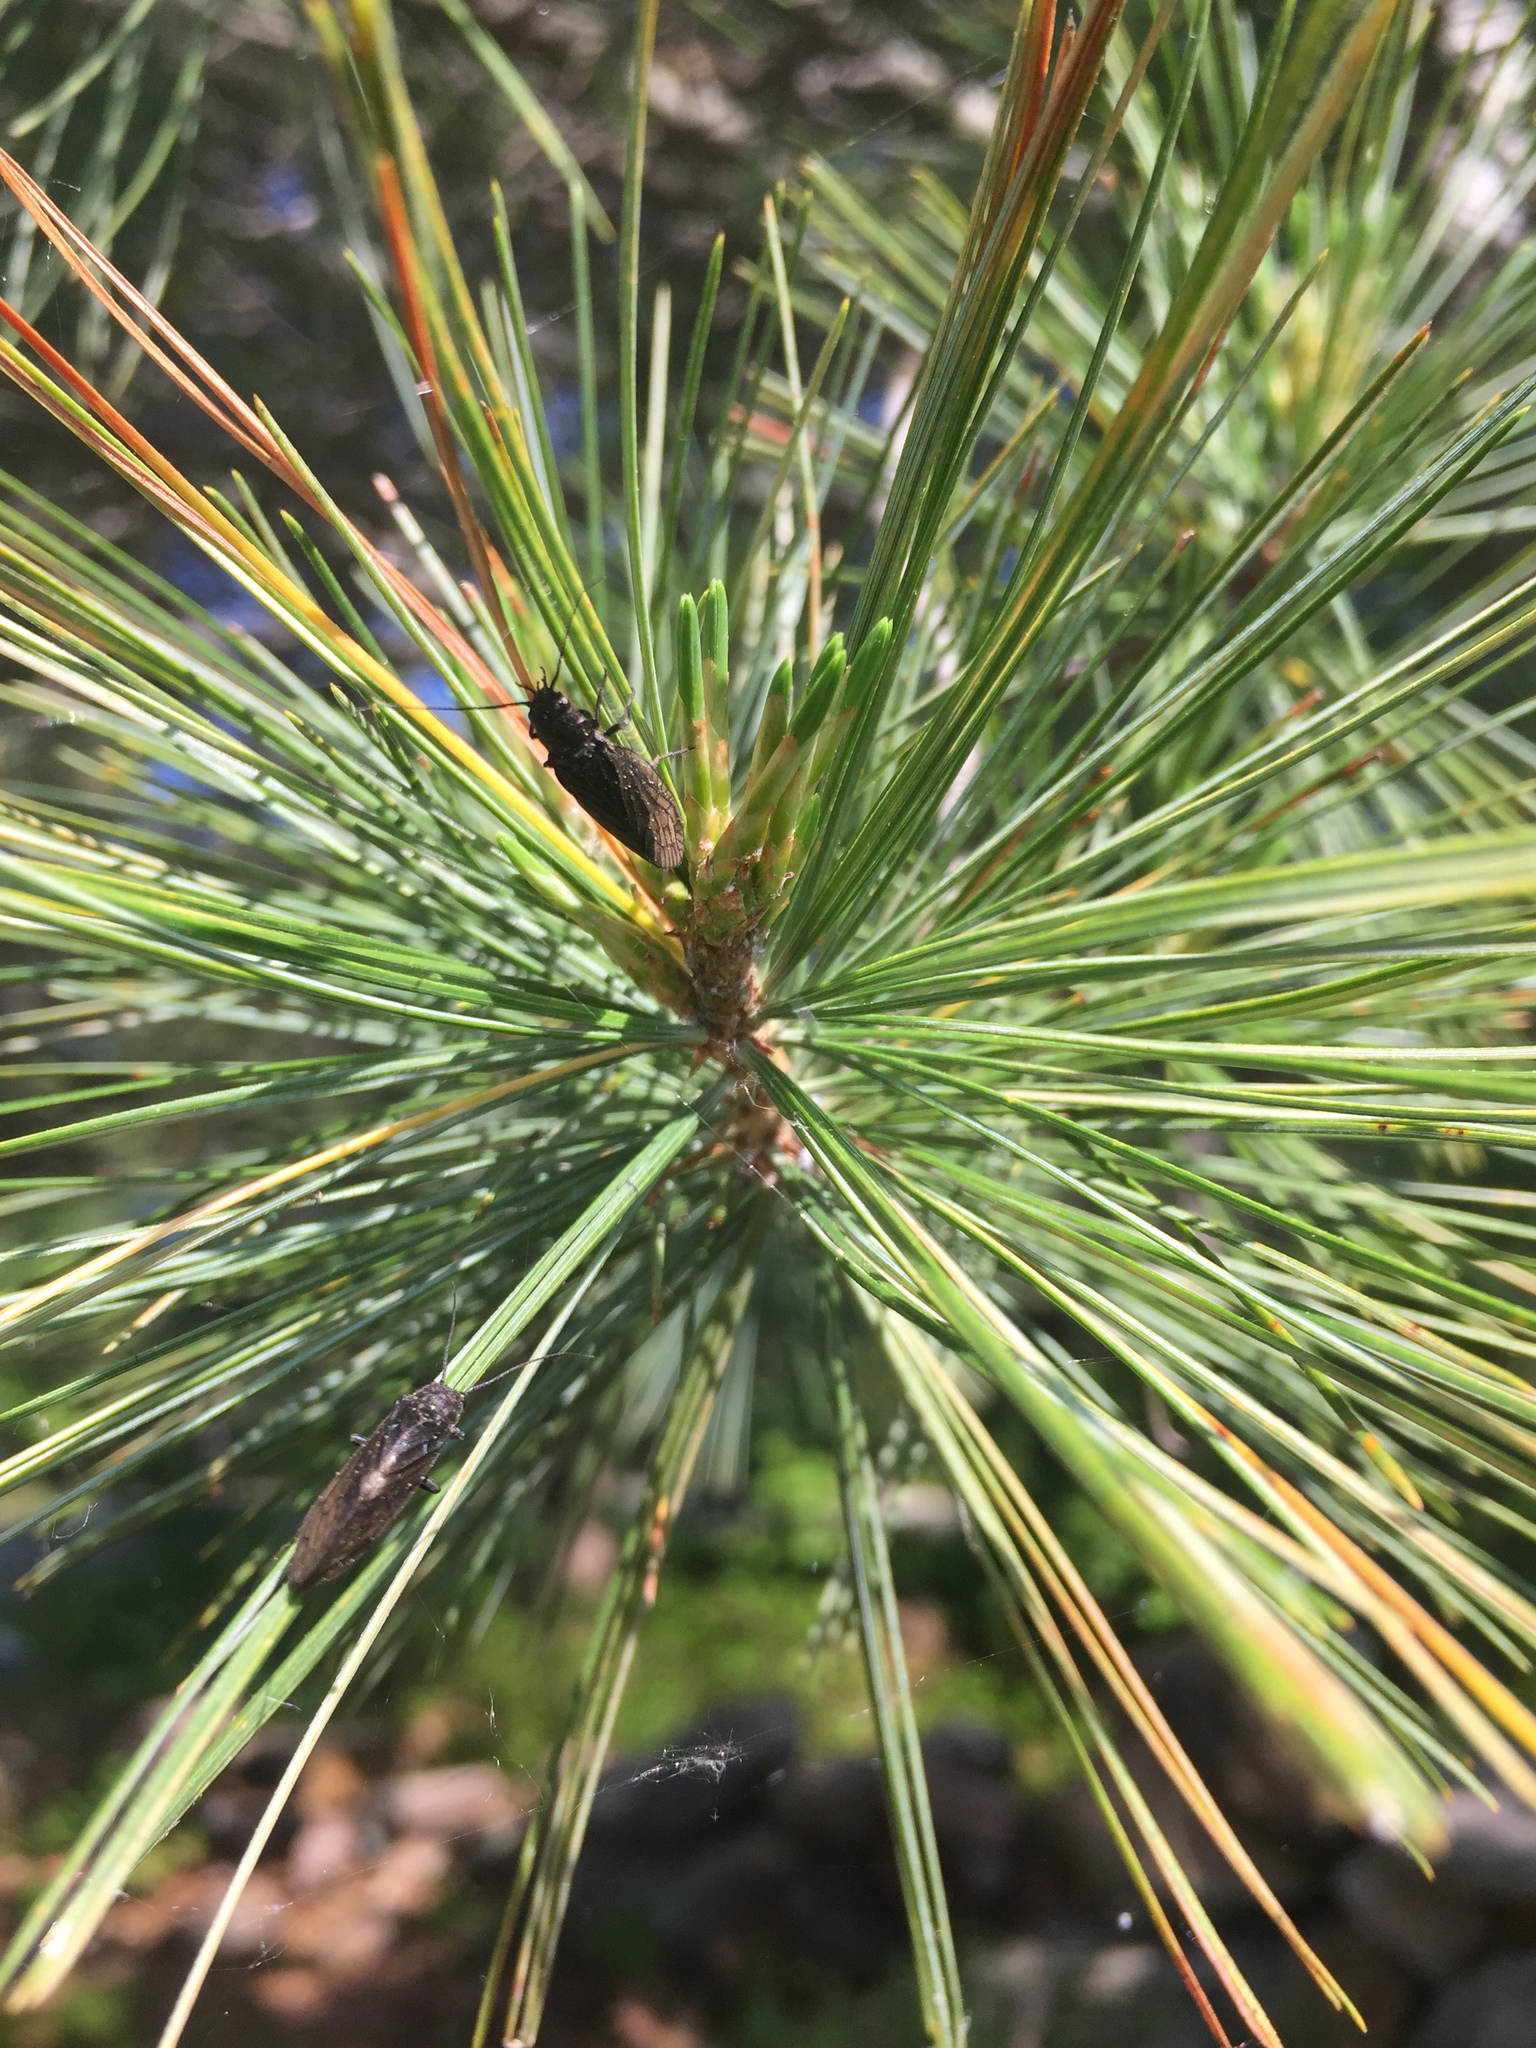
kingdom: Animalia
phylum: Arthropoda
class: Insecta
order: Megaloptera
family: Sialidae
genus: Sialis
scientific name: Sialis
